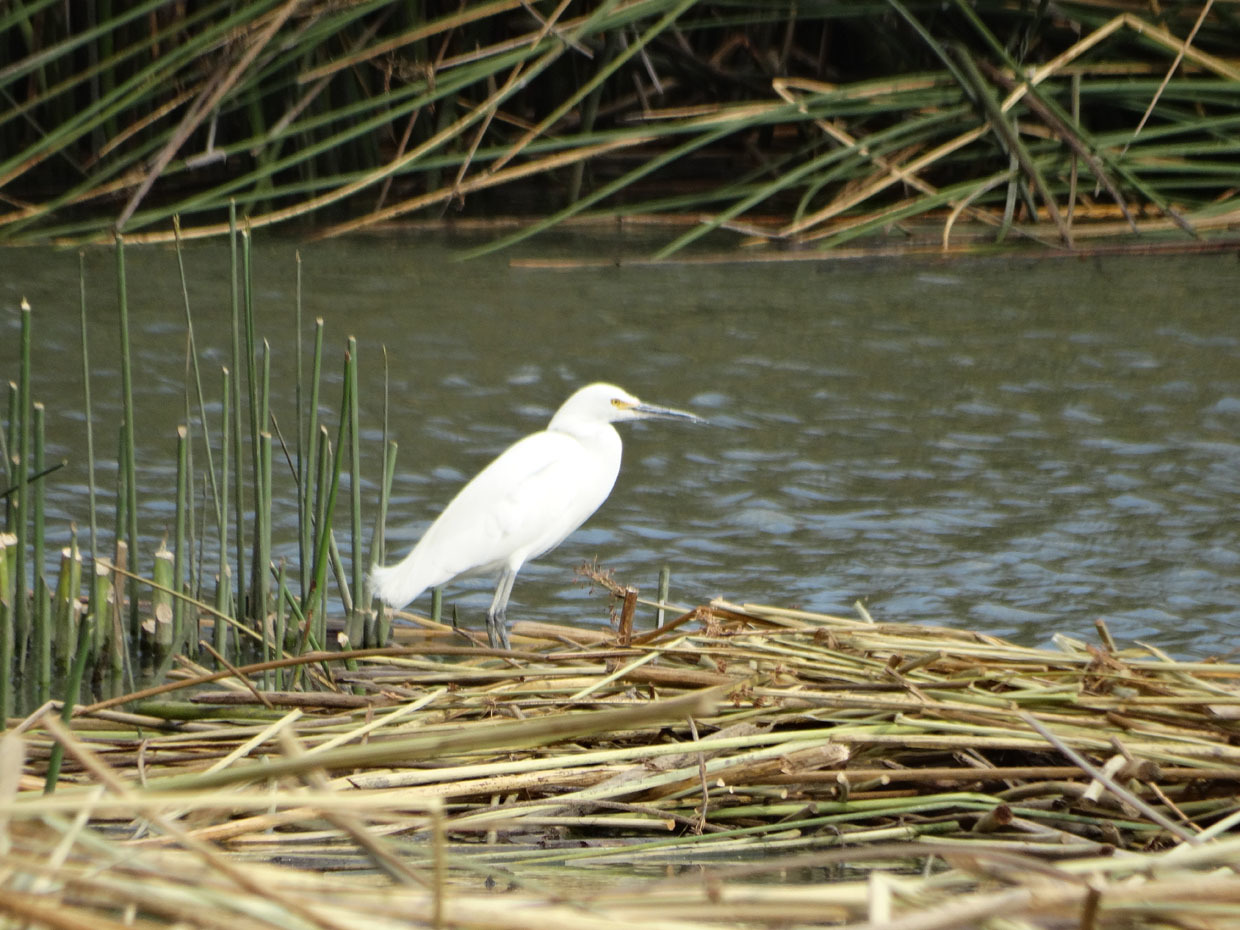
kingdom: Animalia
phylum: Chordata
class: Aves
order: Pelecaniformes
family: Ardeidae
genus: Egretta
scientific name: Egretta thula
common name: Snowy egret
